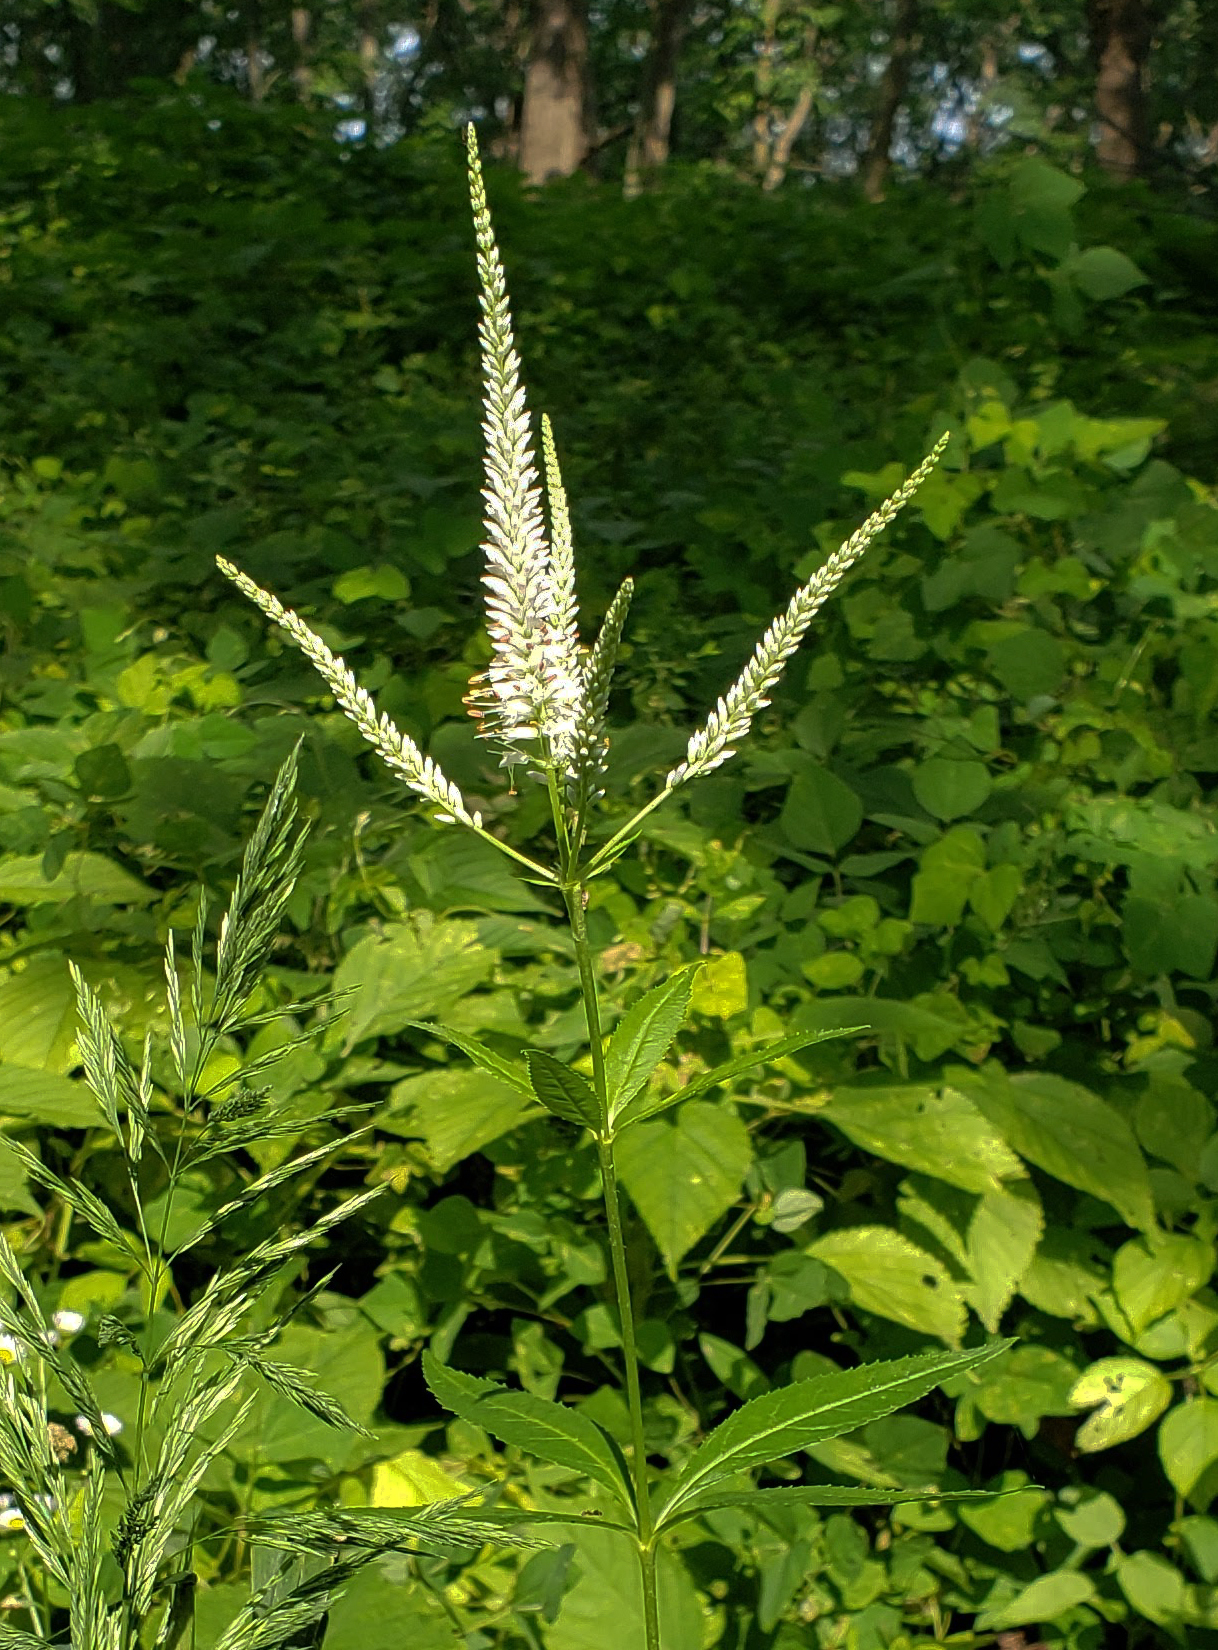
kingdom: Plantae
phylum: Tracheophyta
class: Magnoliopsida
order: Lamiales
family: Plantaginaceae
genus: Veronicastrum
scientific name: Veronicastrum virginicum
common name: Blackroot
